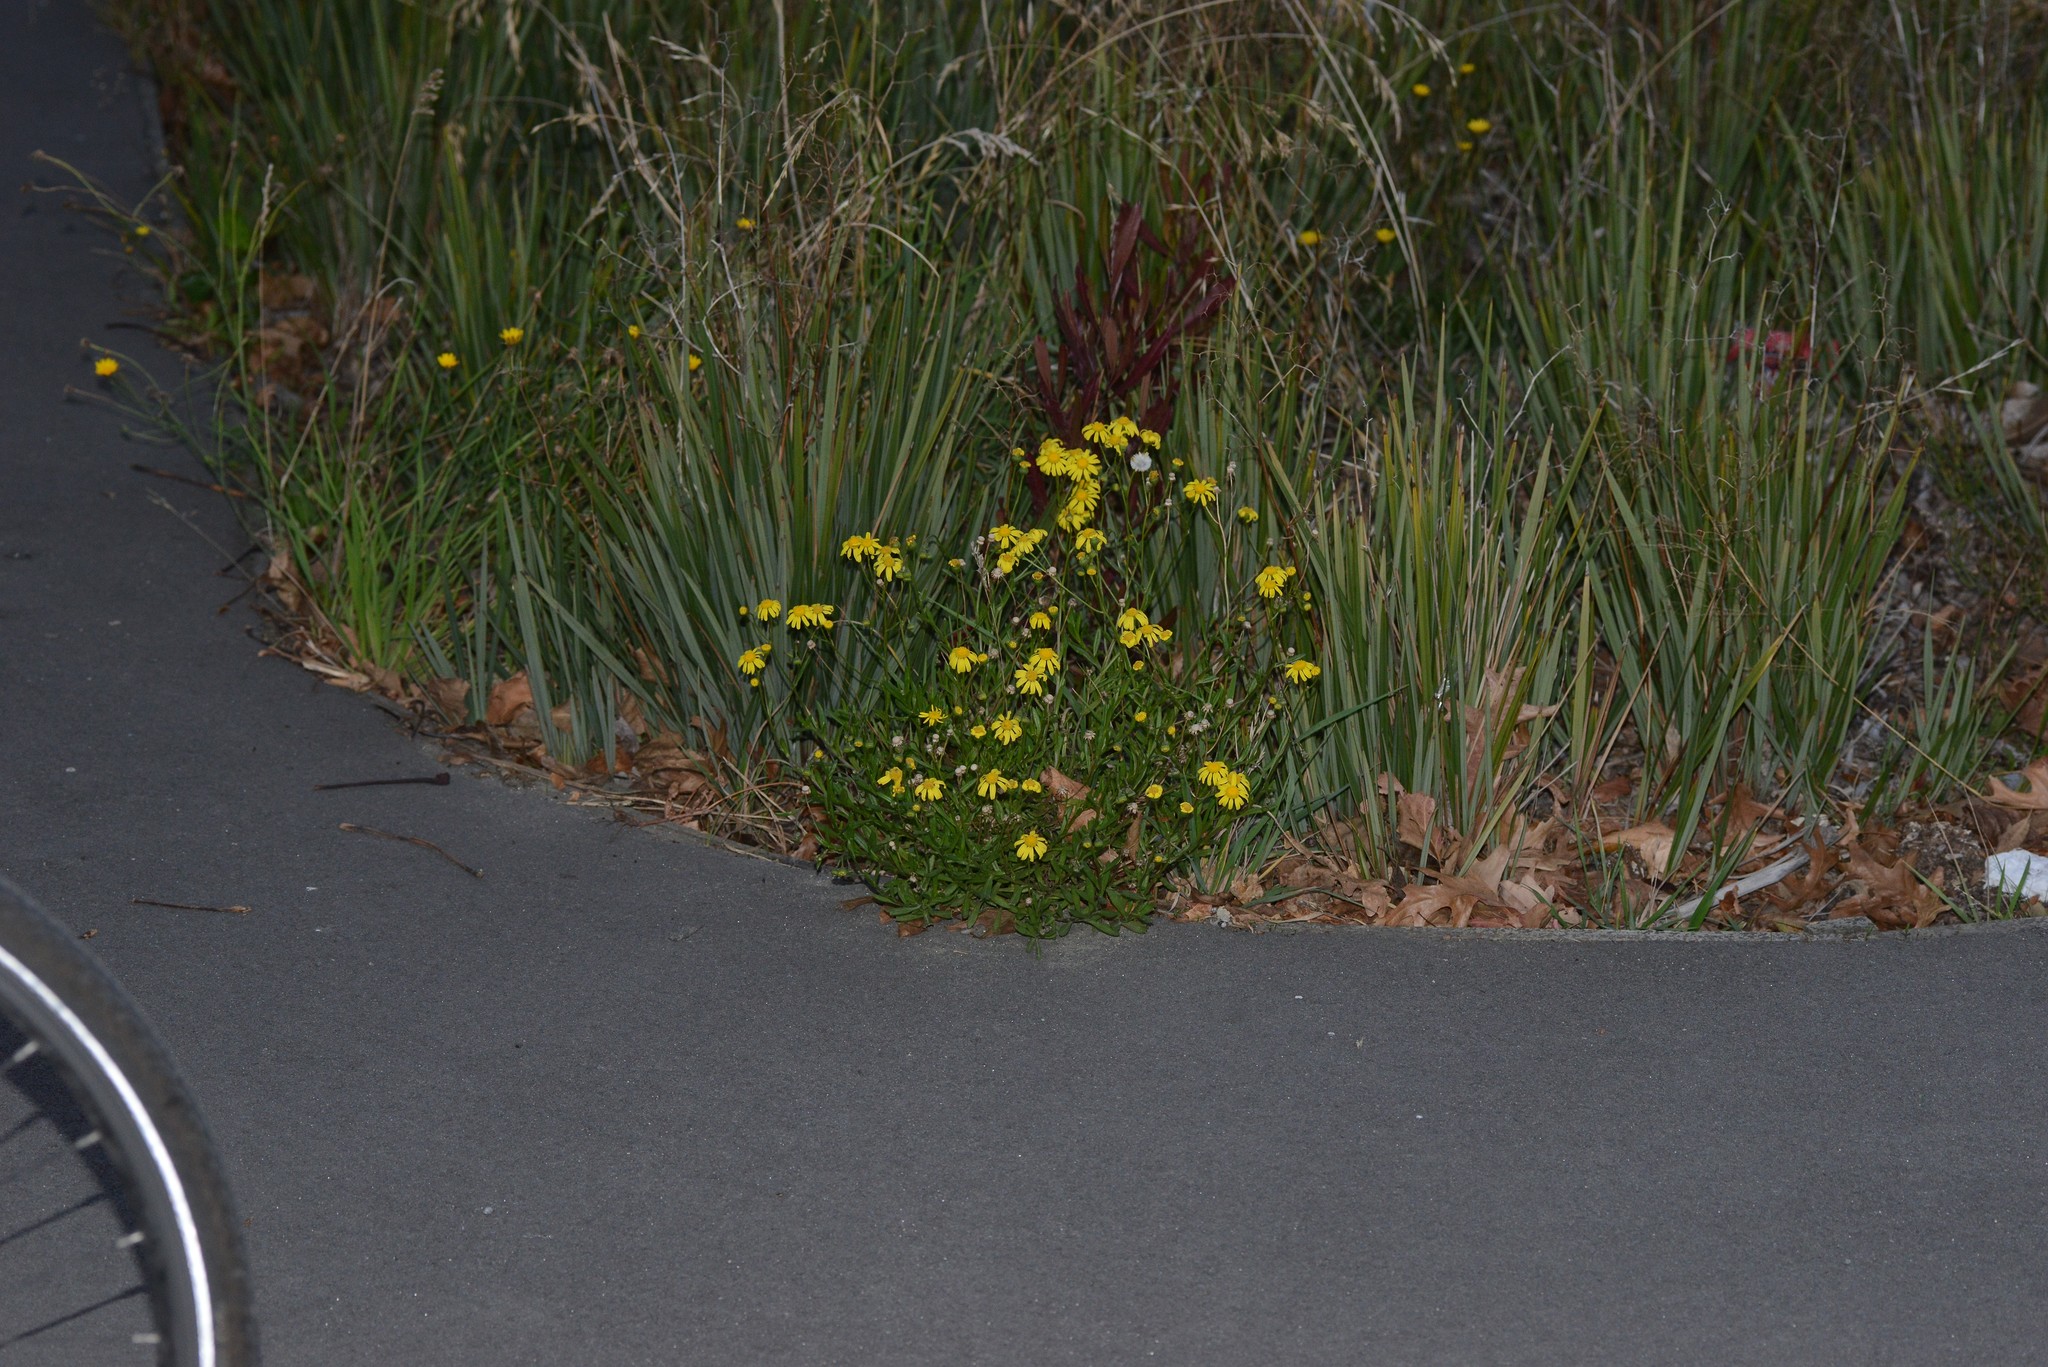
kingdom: Plantae
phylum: Tracheophyta
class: Magnoliopsida
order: Asterales
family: Asteraceae
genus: Senecio
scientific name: Senecio skirrhodon
